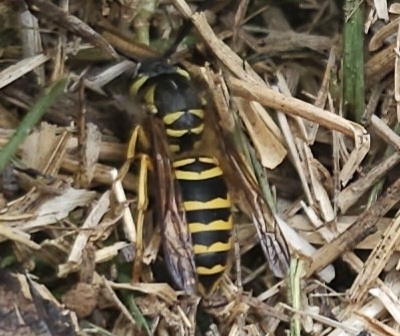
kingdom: Animalia
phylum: Arthropoda
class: Insecta
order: Hymenoptera
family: Vespidae
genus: Vespula
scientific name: Vespula maculifrons
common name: Eastern yellowjacket
